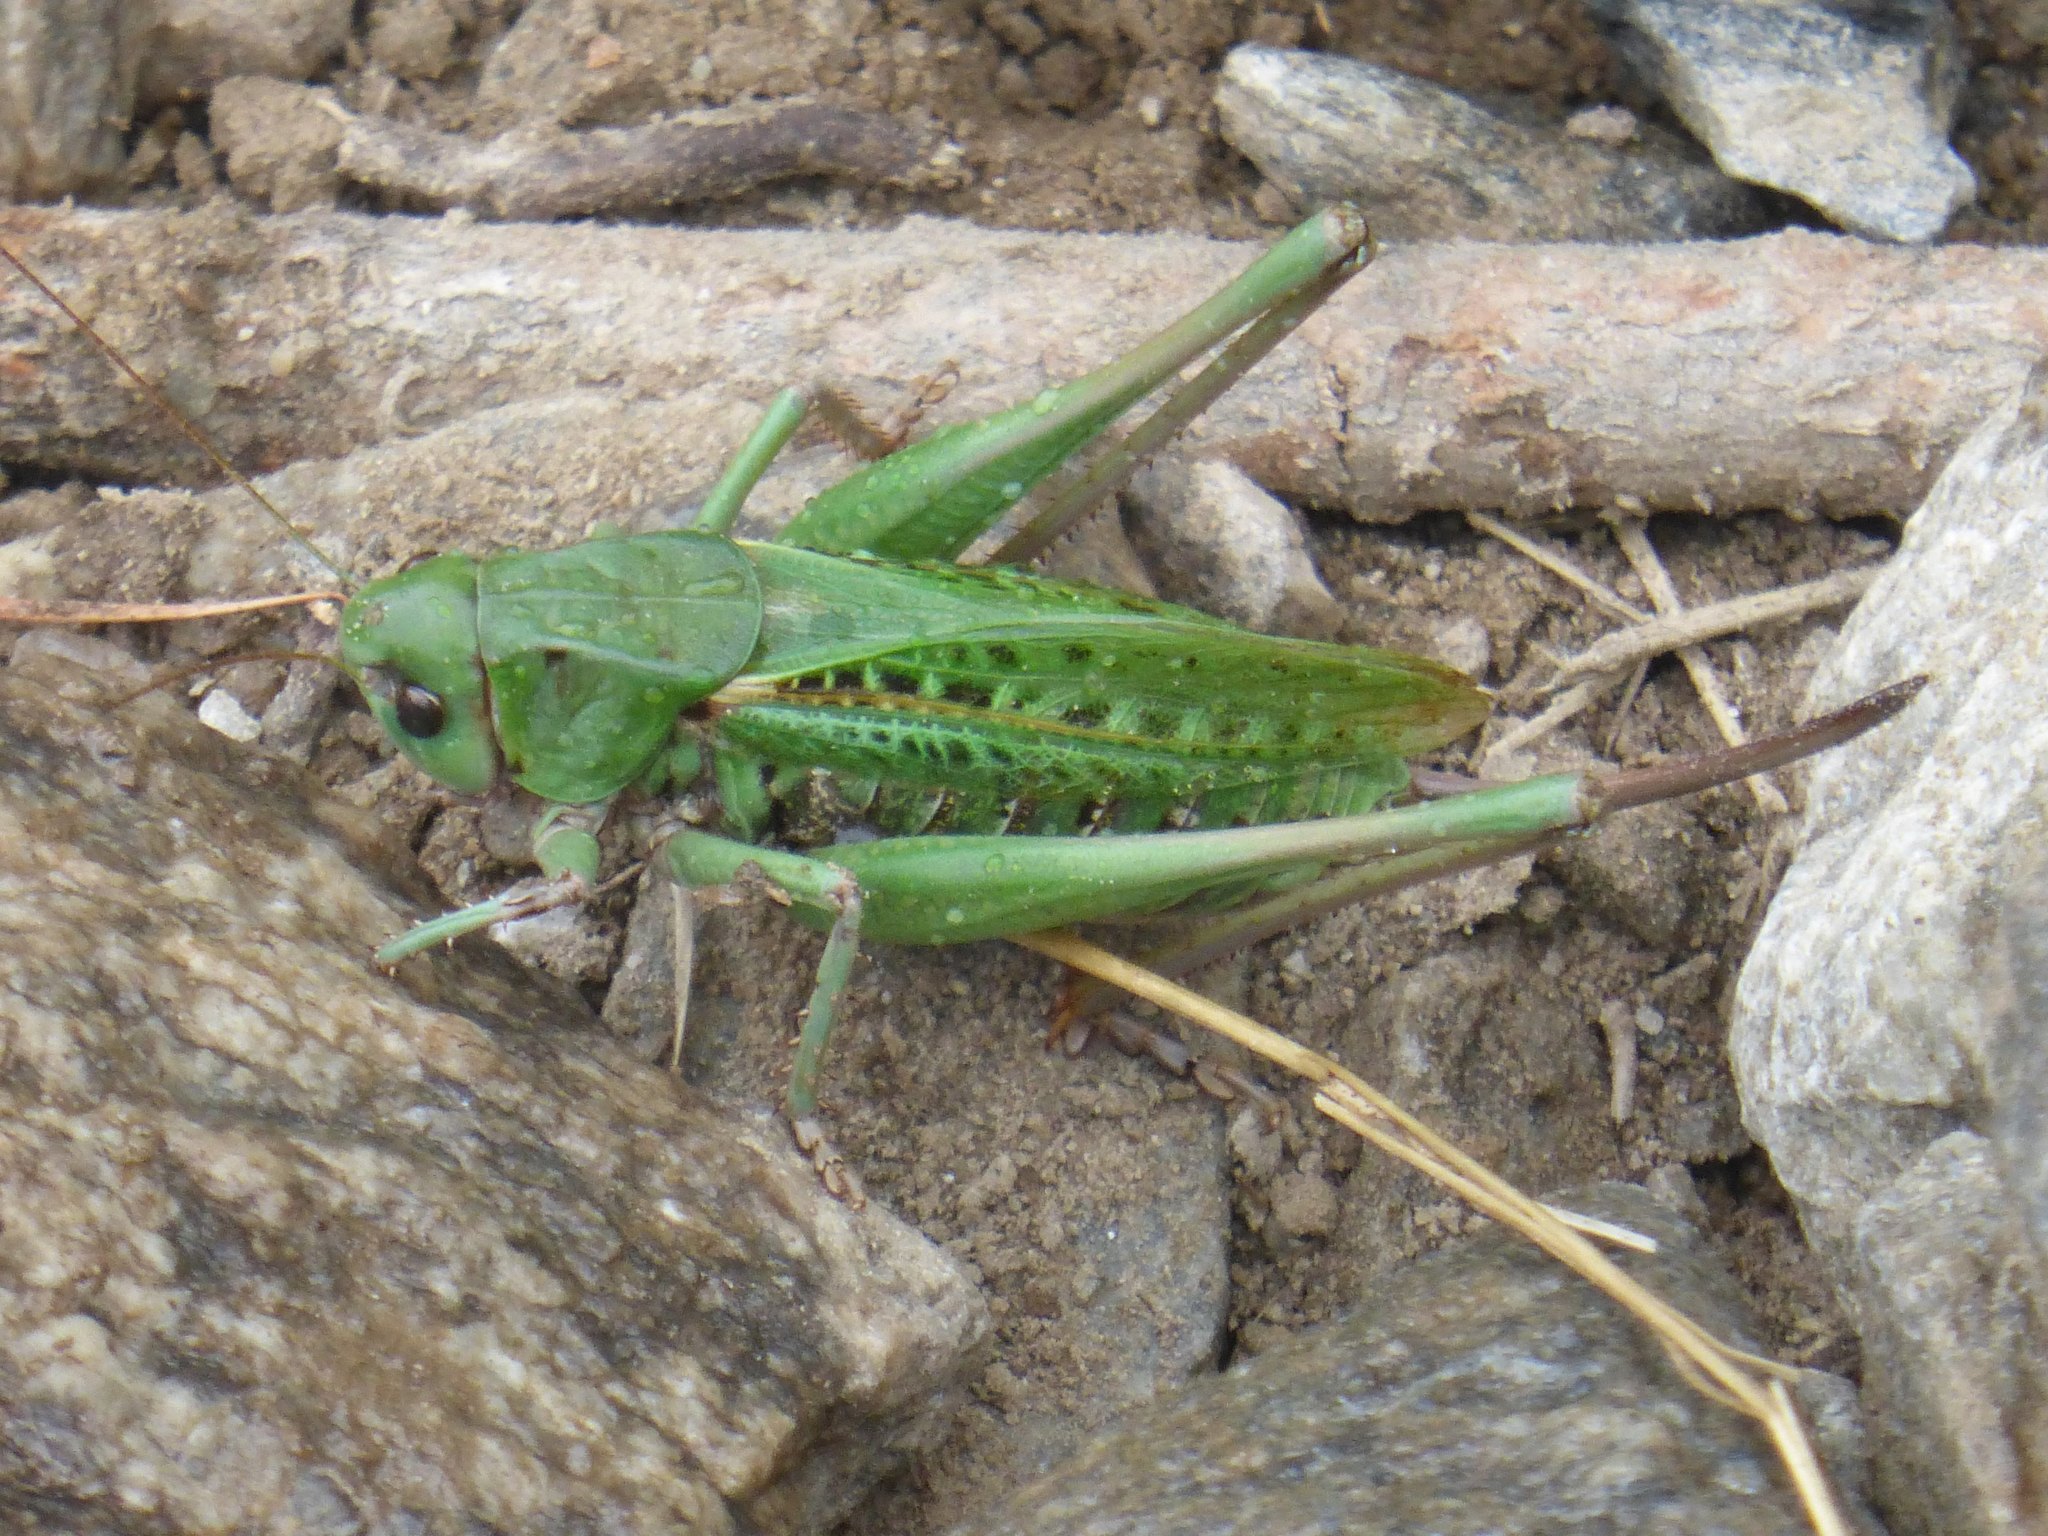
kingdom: Animalia
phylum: Arthropoda
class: Insecta
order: Orthoptera
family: Tettigoniidae
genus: Decticus
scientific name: Decticus verrucivorus
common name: Wart-biter
